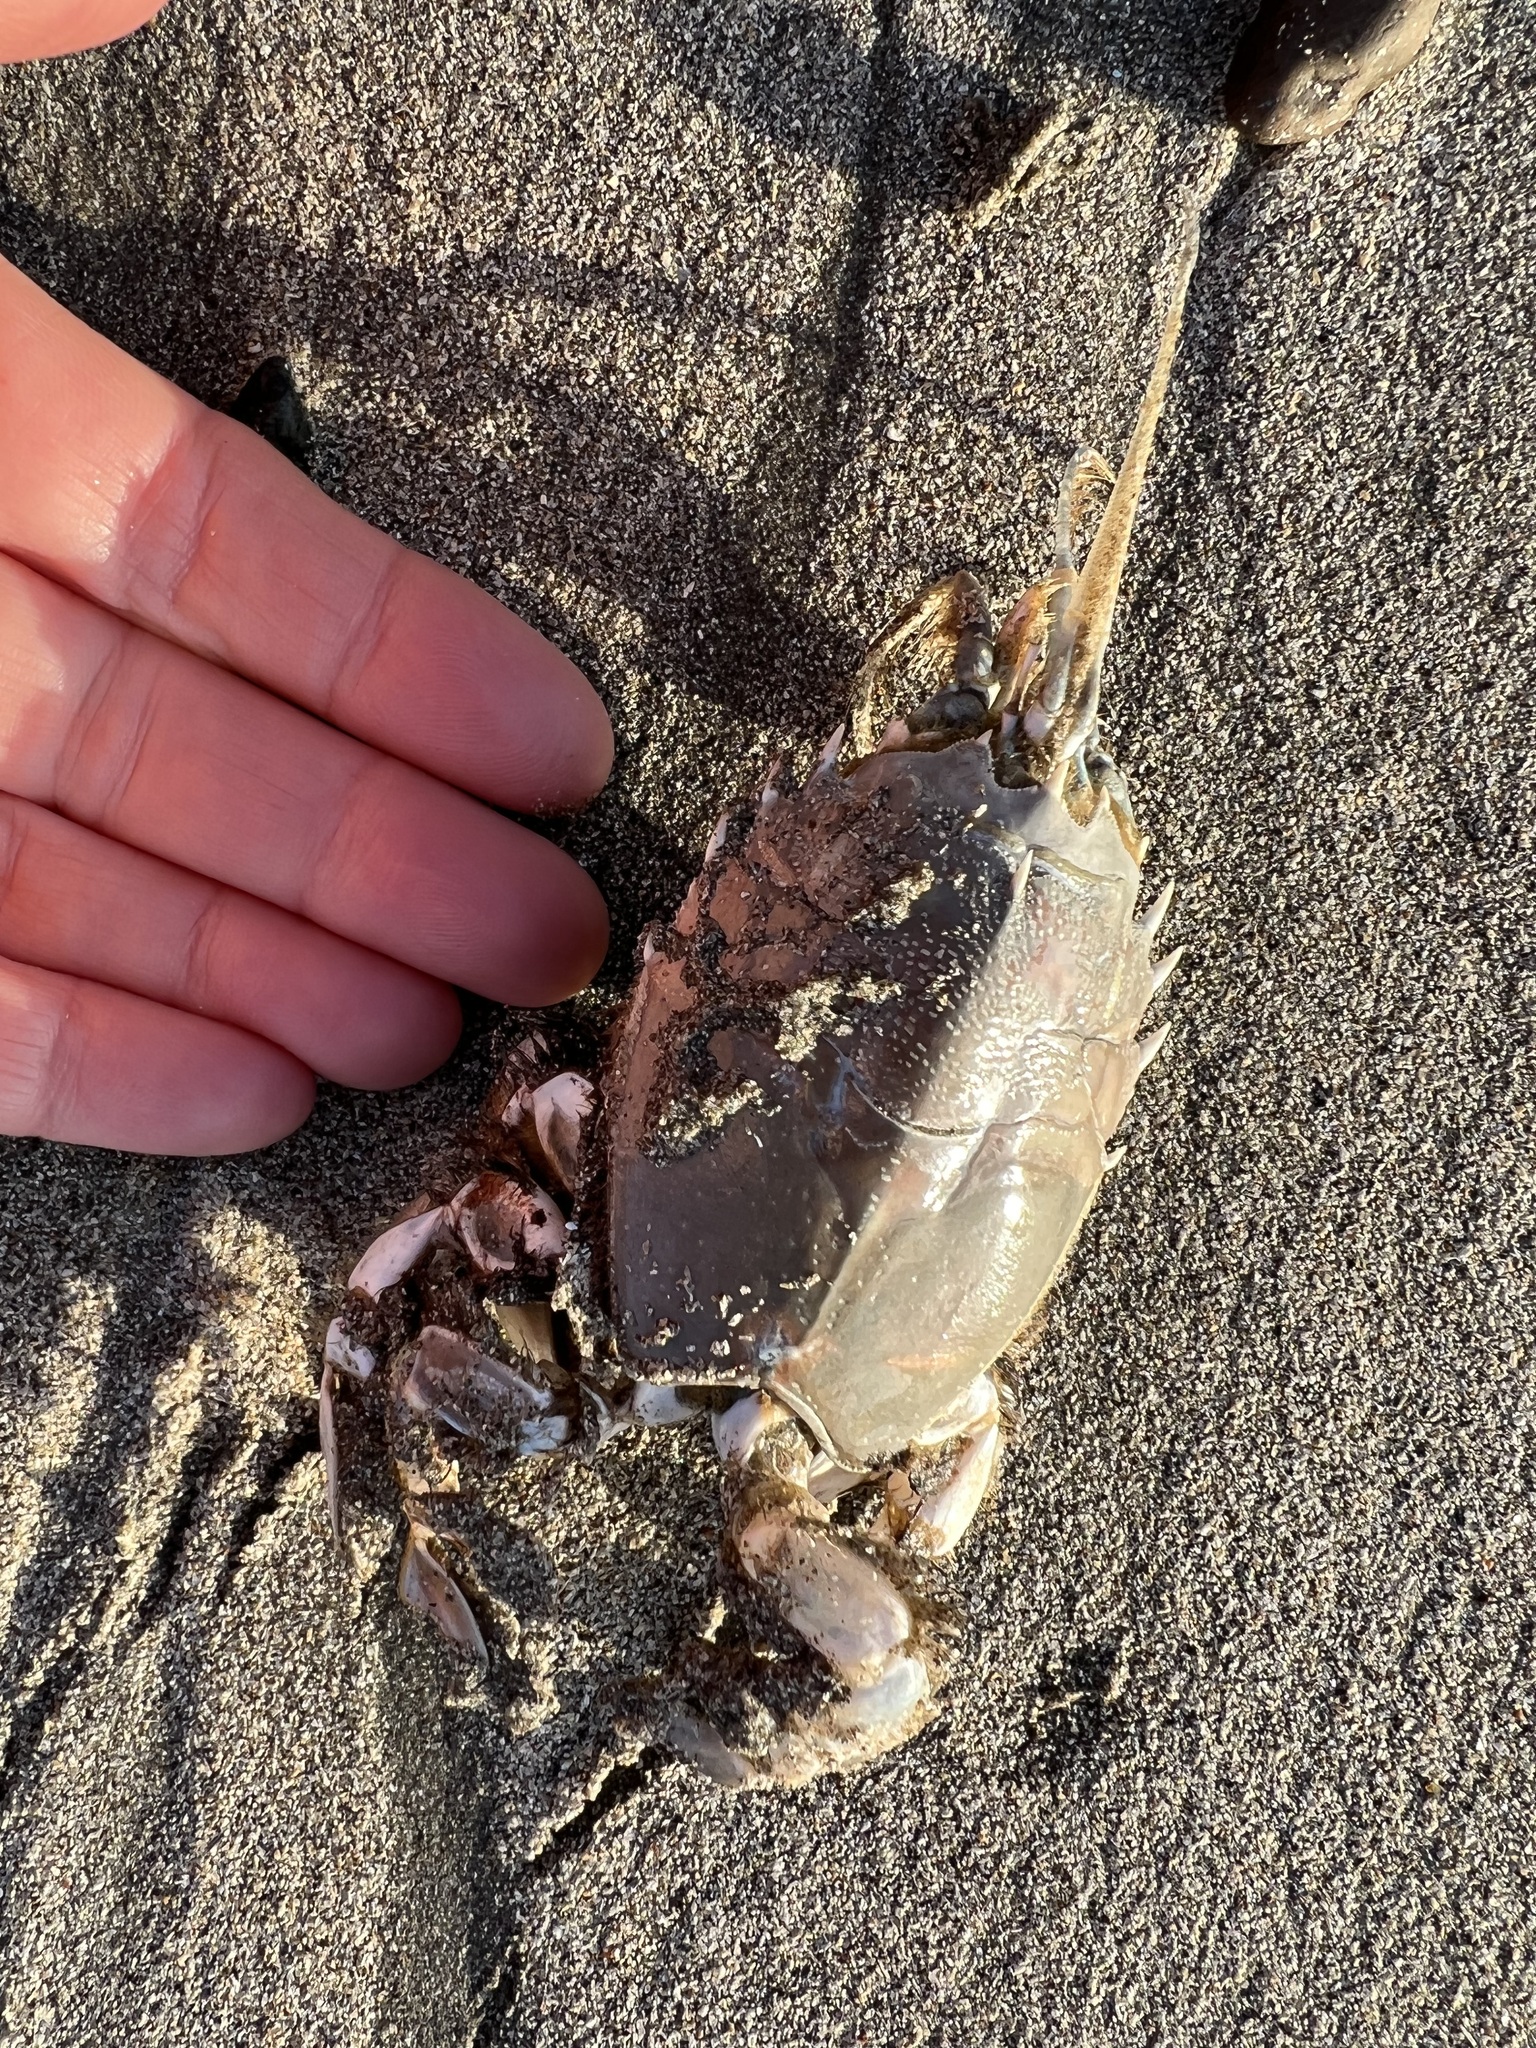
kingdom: Animalia
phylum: Arthropoda
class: Malacostraca
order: Decapoda
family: Blepharipodidae
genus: Blepharipoda
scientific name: Blepharipoda occidentalis
